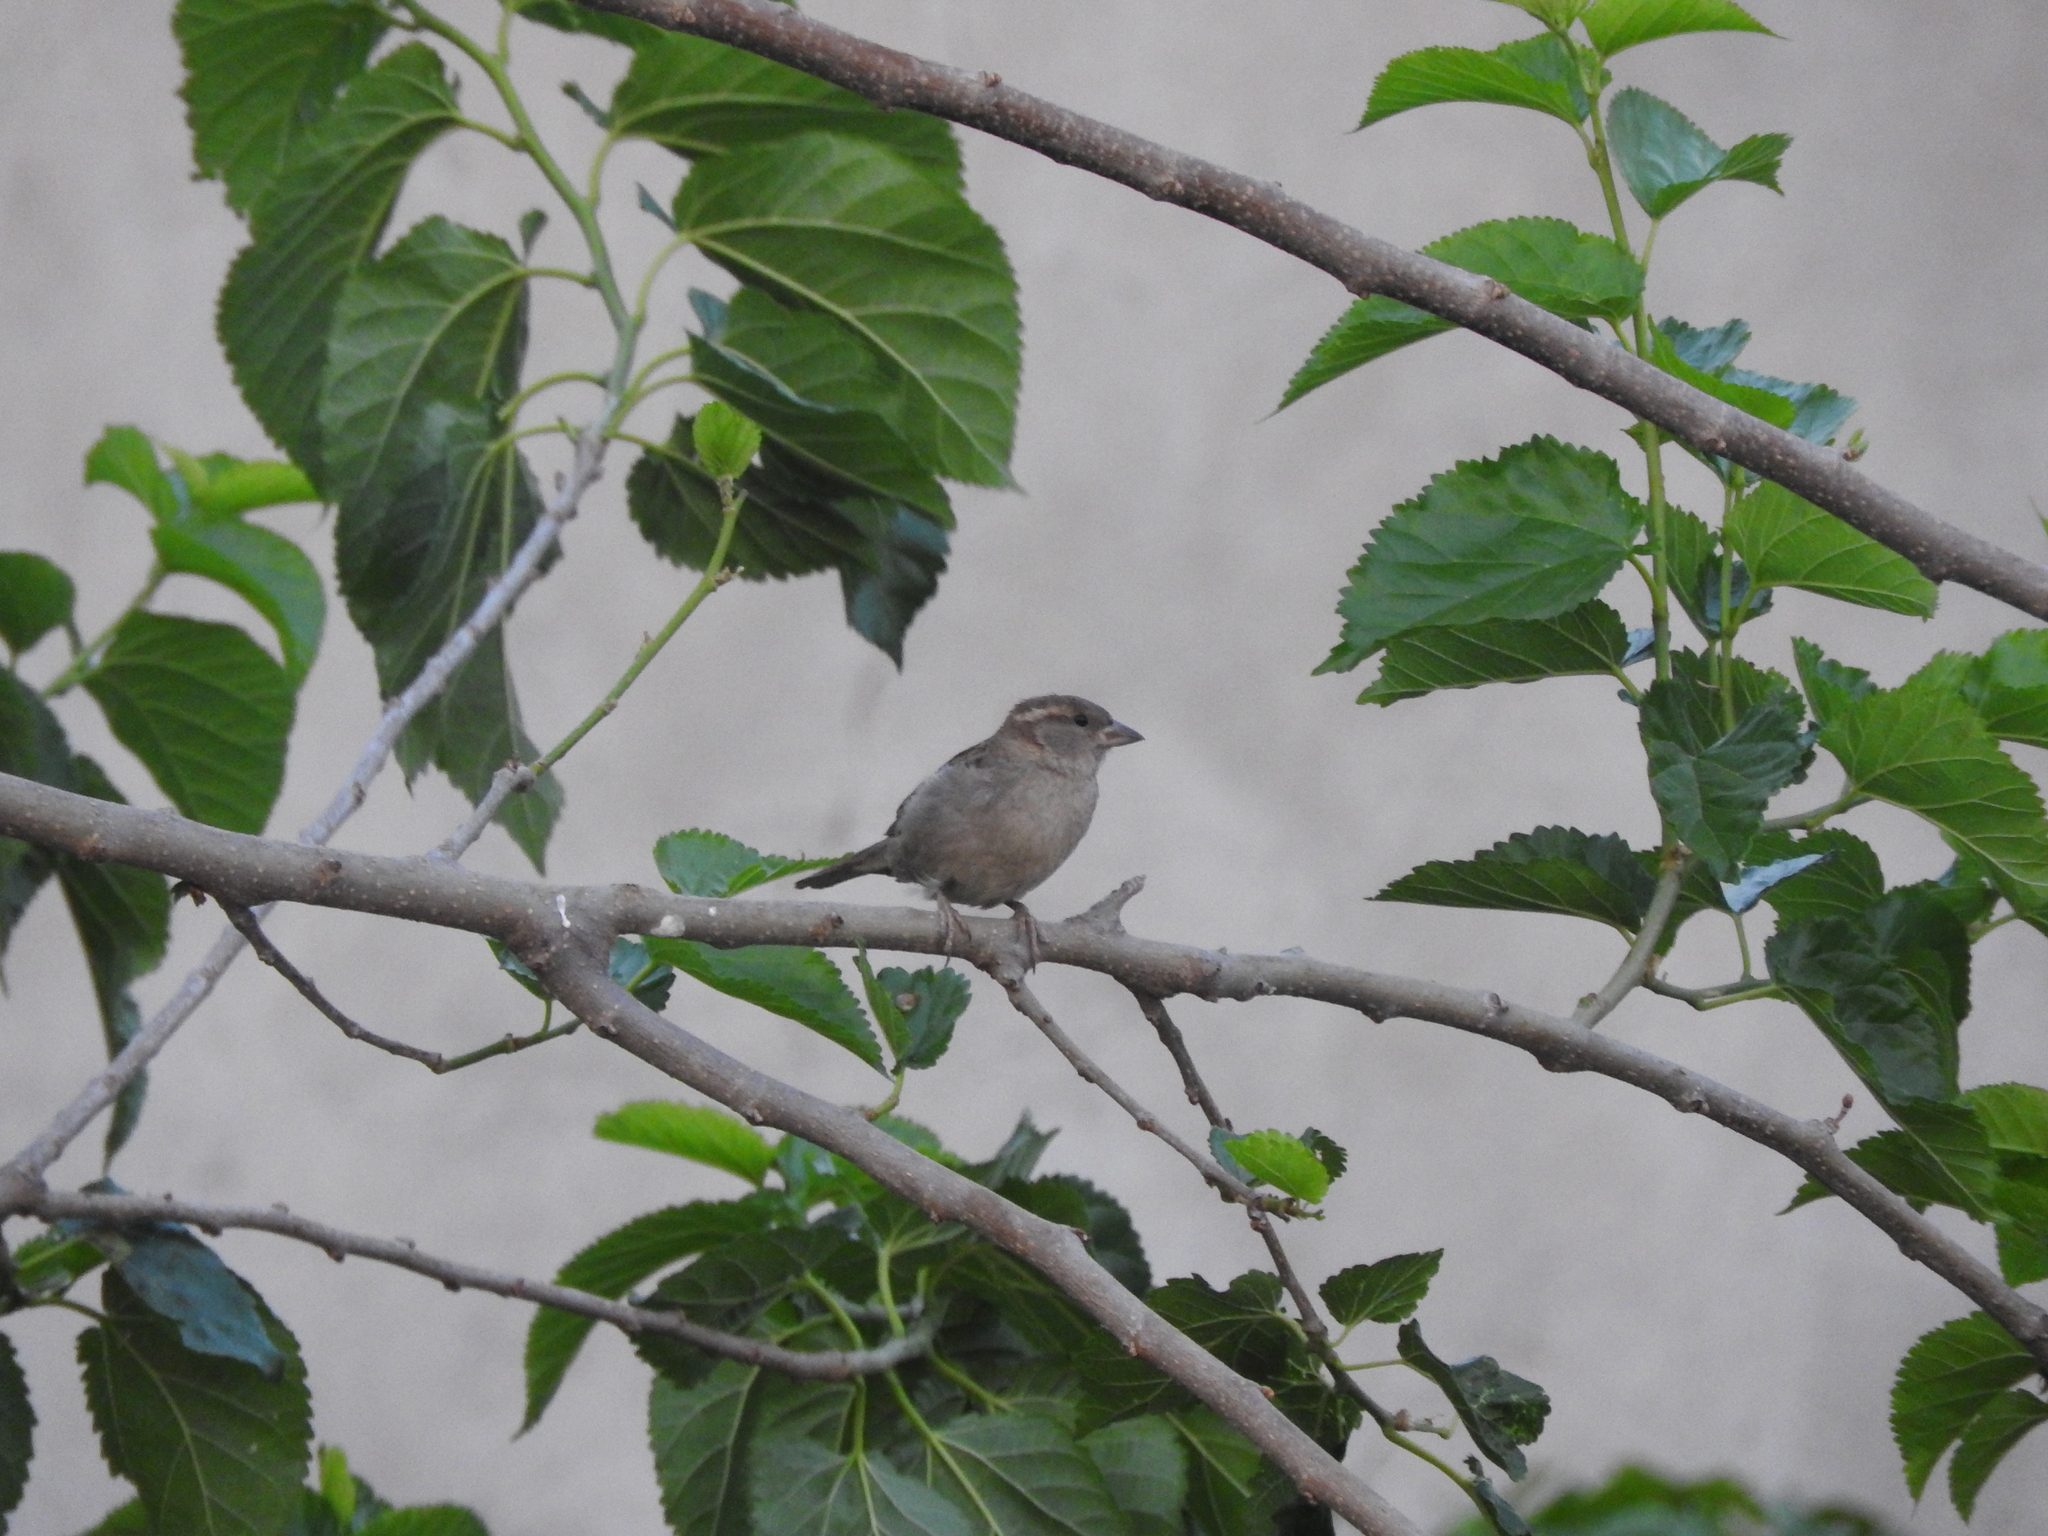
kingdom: Animalia
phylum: Chordata
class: Aves
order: Passeriformes
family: Passeridae
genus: Passer
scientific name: Passer domesticus
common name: House sparrow
